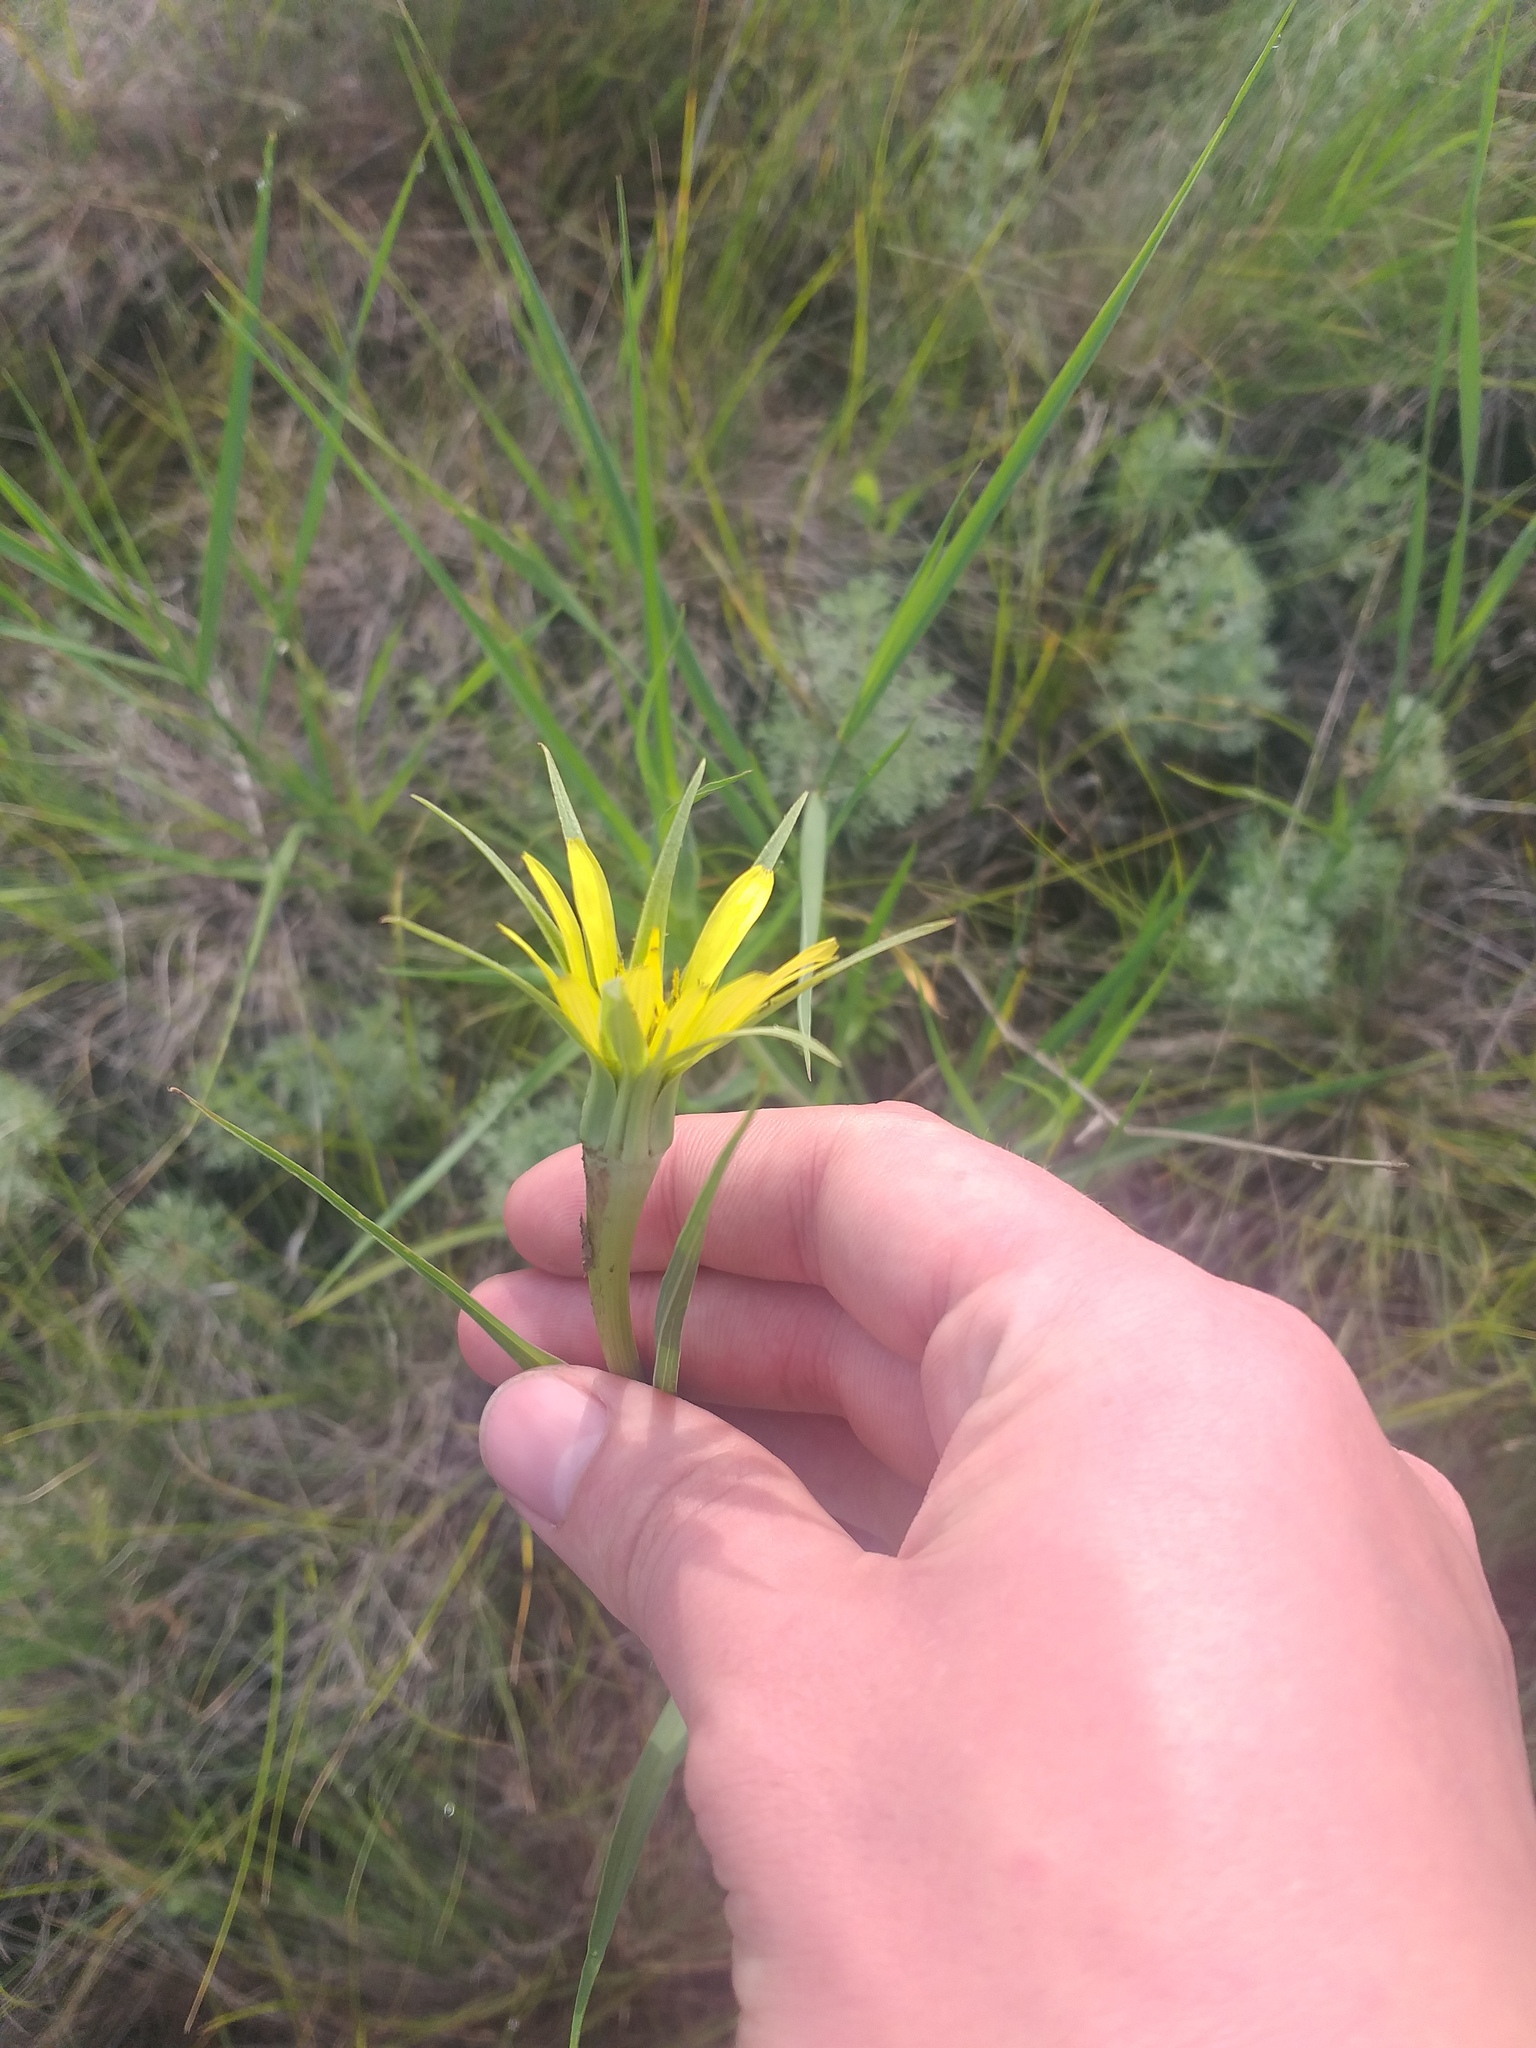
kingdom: Plantae
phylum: Tracheophyta
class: Magnoliopsida
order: Asterales
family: Asteraceae
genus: Tragopogon
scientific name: Tragopogon dubius
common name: Yellow salsify
